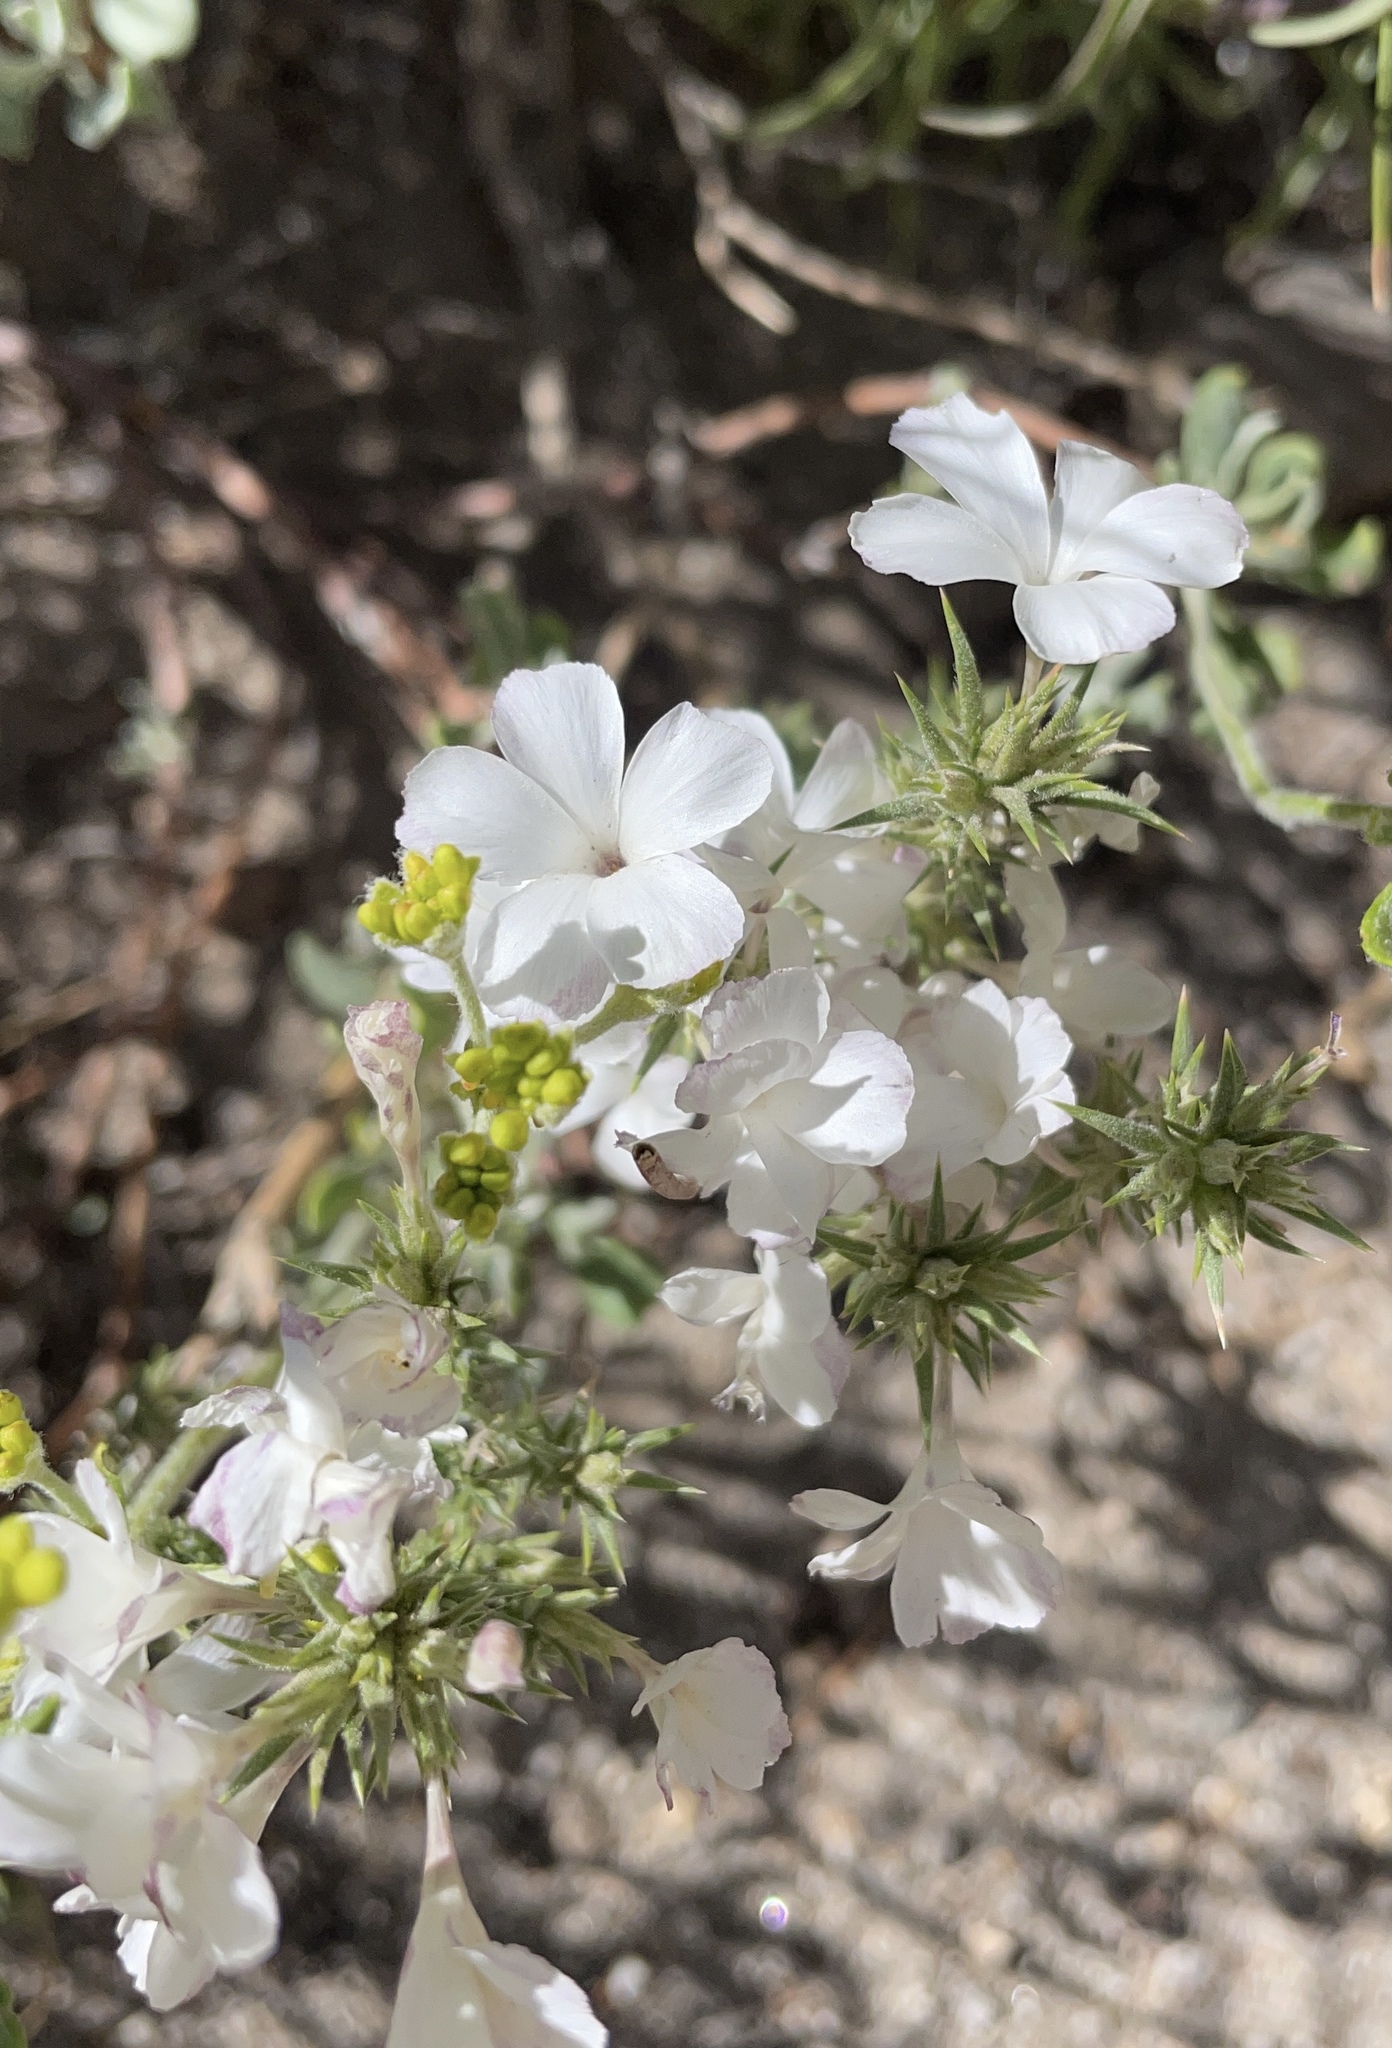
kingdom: Plantae
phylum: Tracheophyta
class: Magnoliopsida
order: Ericales
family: Polemoniaceae
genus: Linanthus
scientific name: Linanthus pungens
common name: Granite prickly phlox
